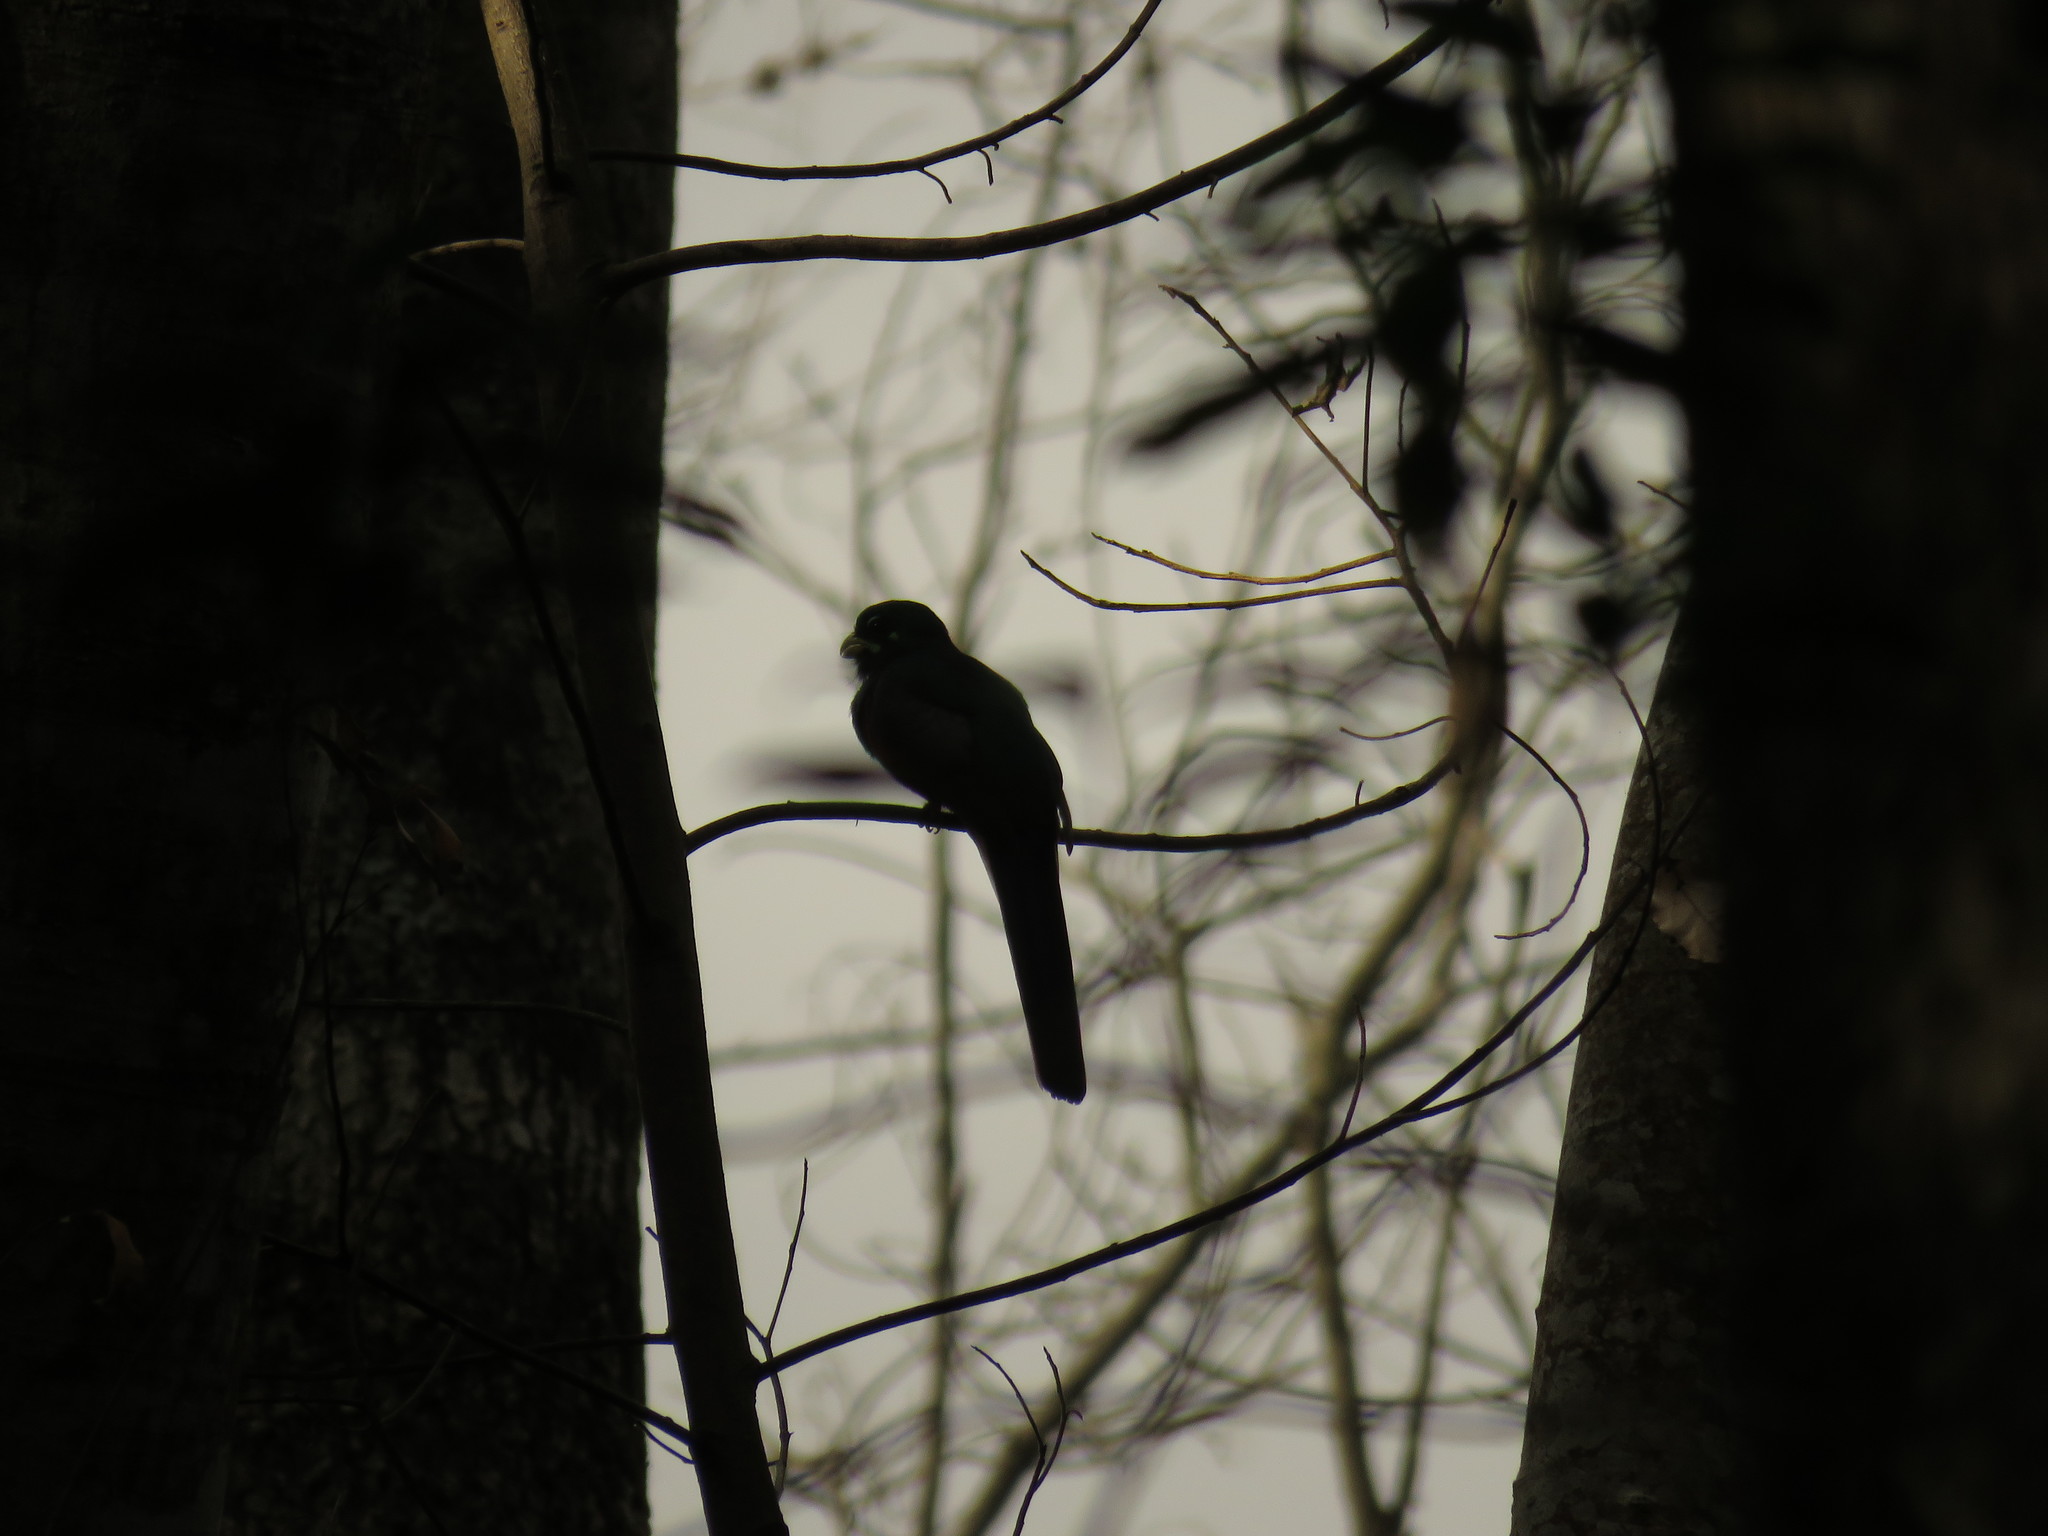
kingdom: Animalia
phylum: Chordata
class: Aves
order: Trogoniformes
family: Trogonidae
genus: Apaloderma
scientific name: Apaloderma narina
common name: Narina trogon
